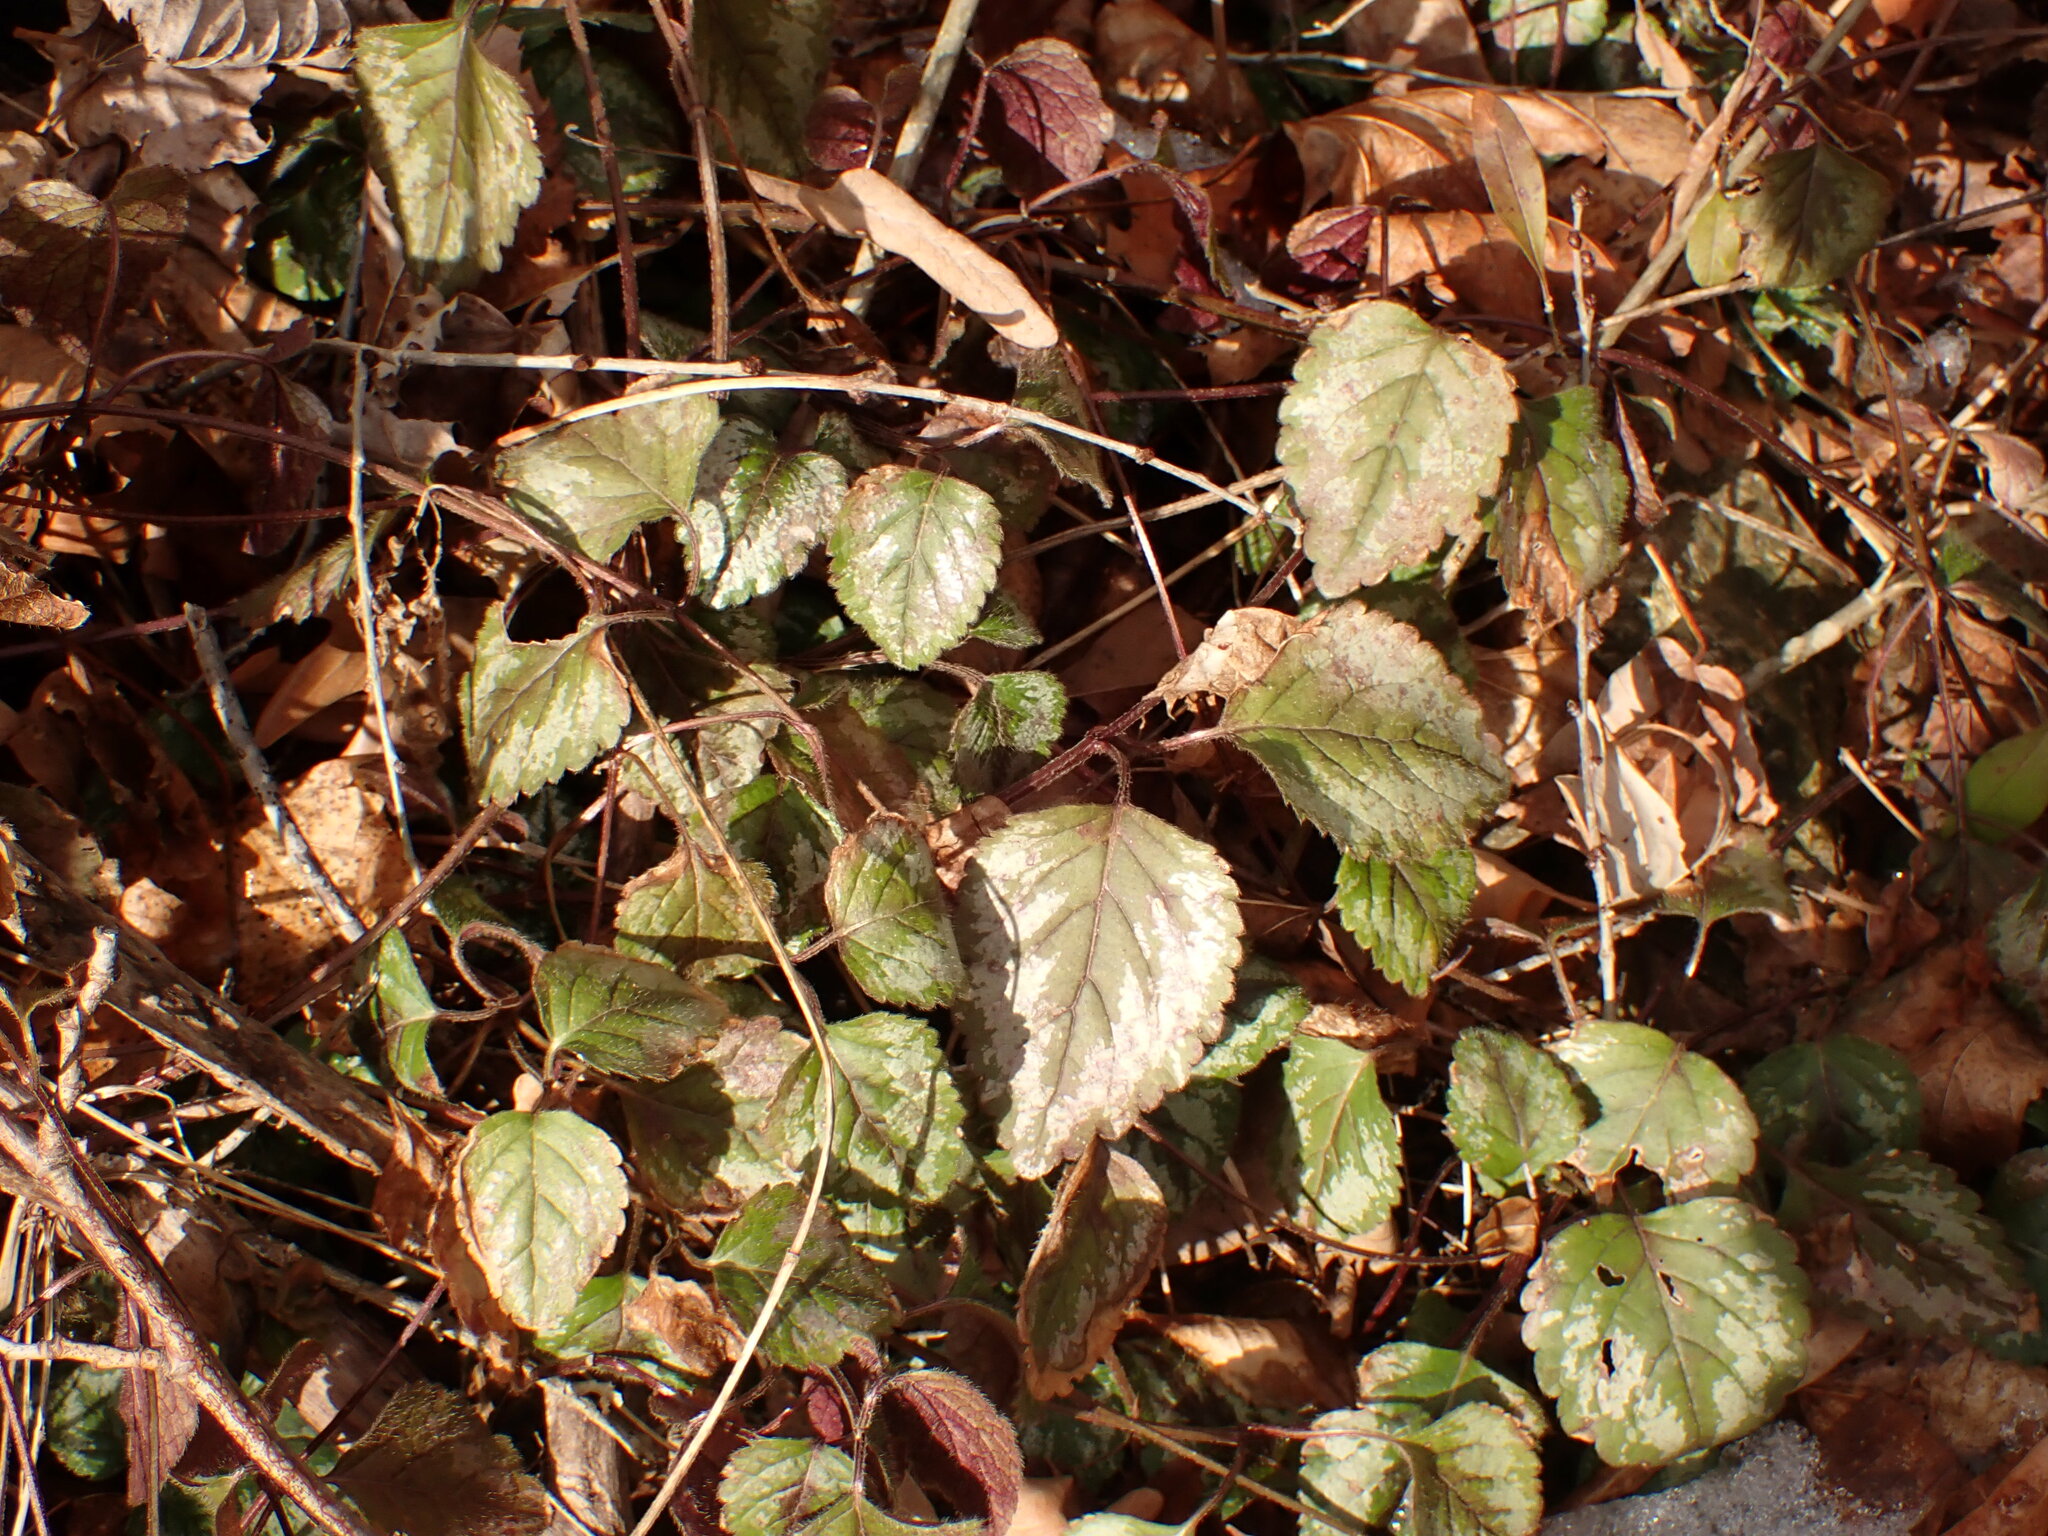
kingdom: Plantae
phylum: Tracheophyta
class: Magnoliopsida
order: Lamiales
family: Lamiaceae
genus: Lamium
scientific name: Lamium galeobdolon
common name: Yellow archangel
